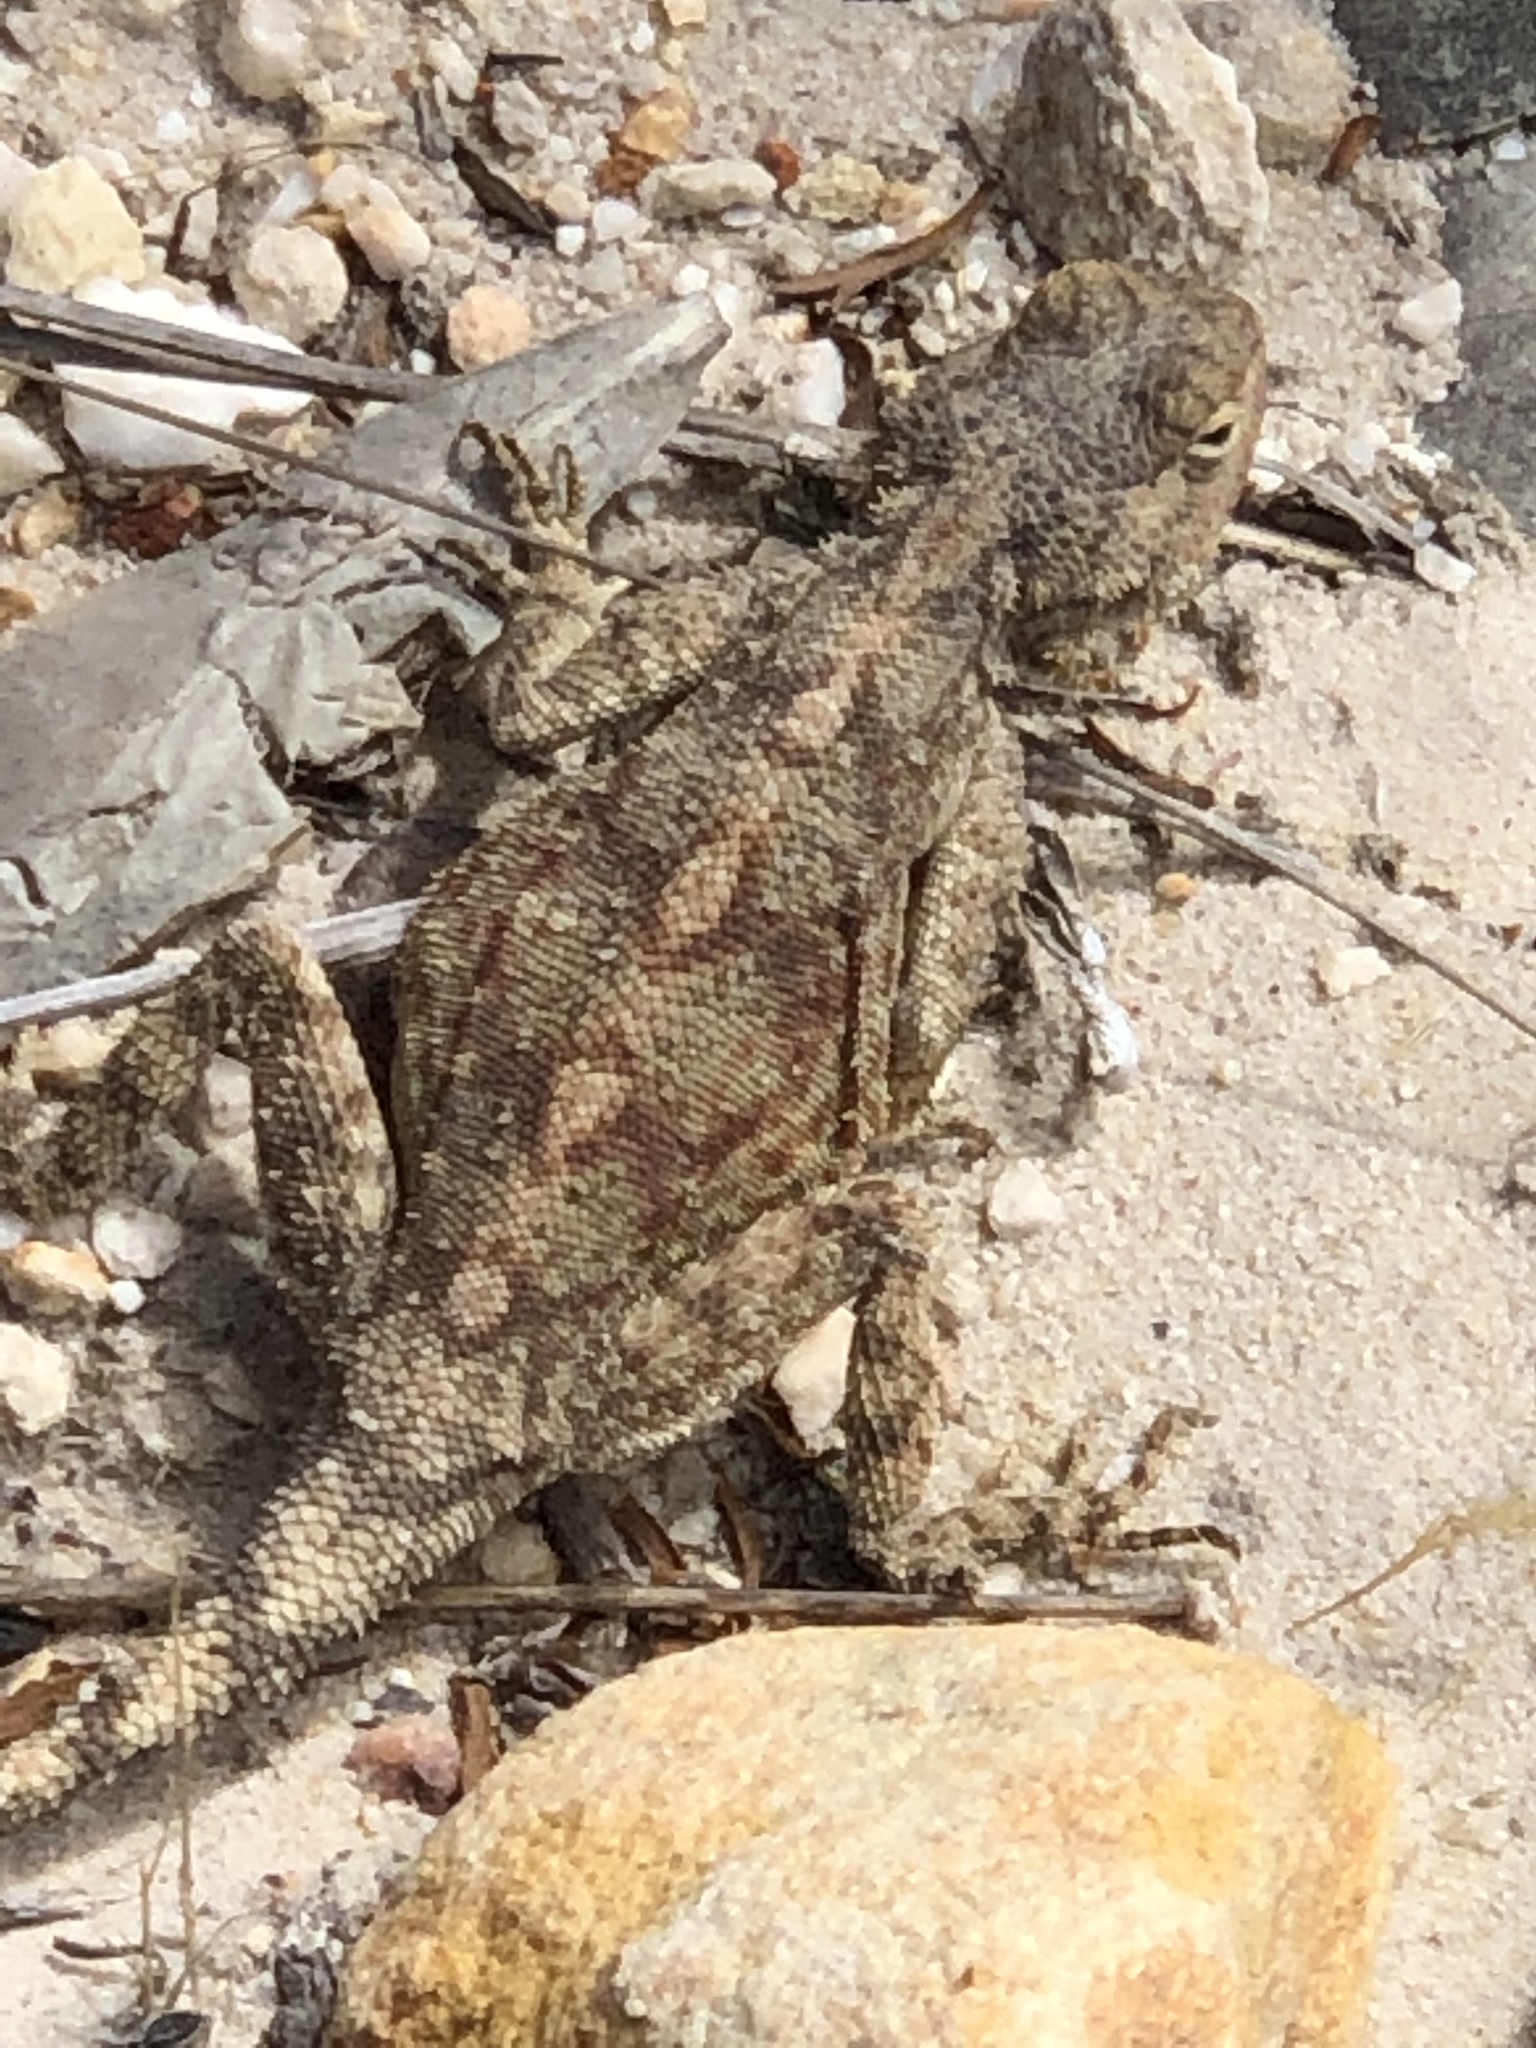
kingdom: Animalia
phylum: Chordata
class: Squamata
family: Agamidae
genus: Agama
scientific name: Agama atra
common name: Southern african rock agama
